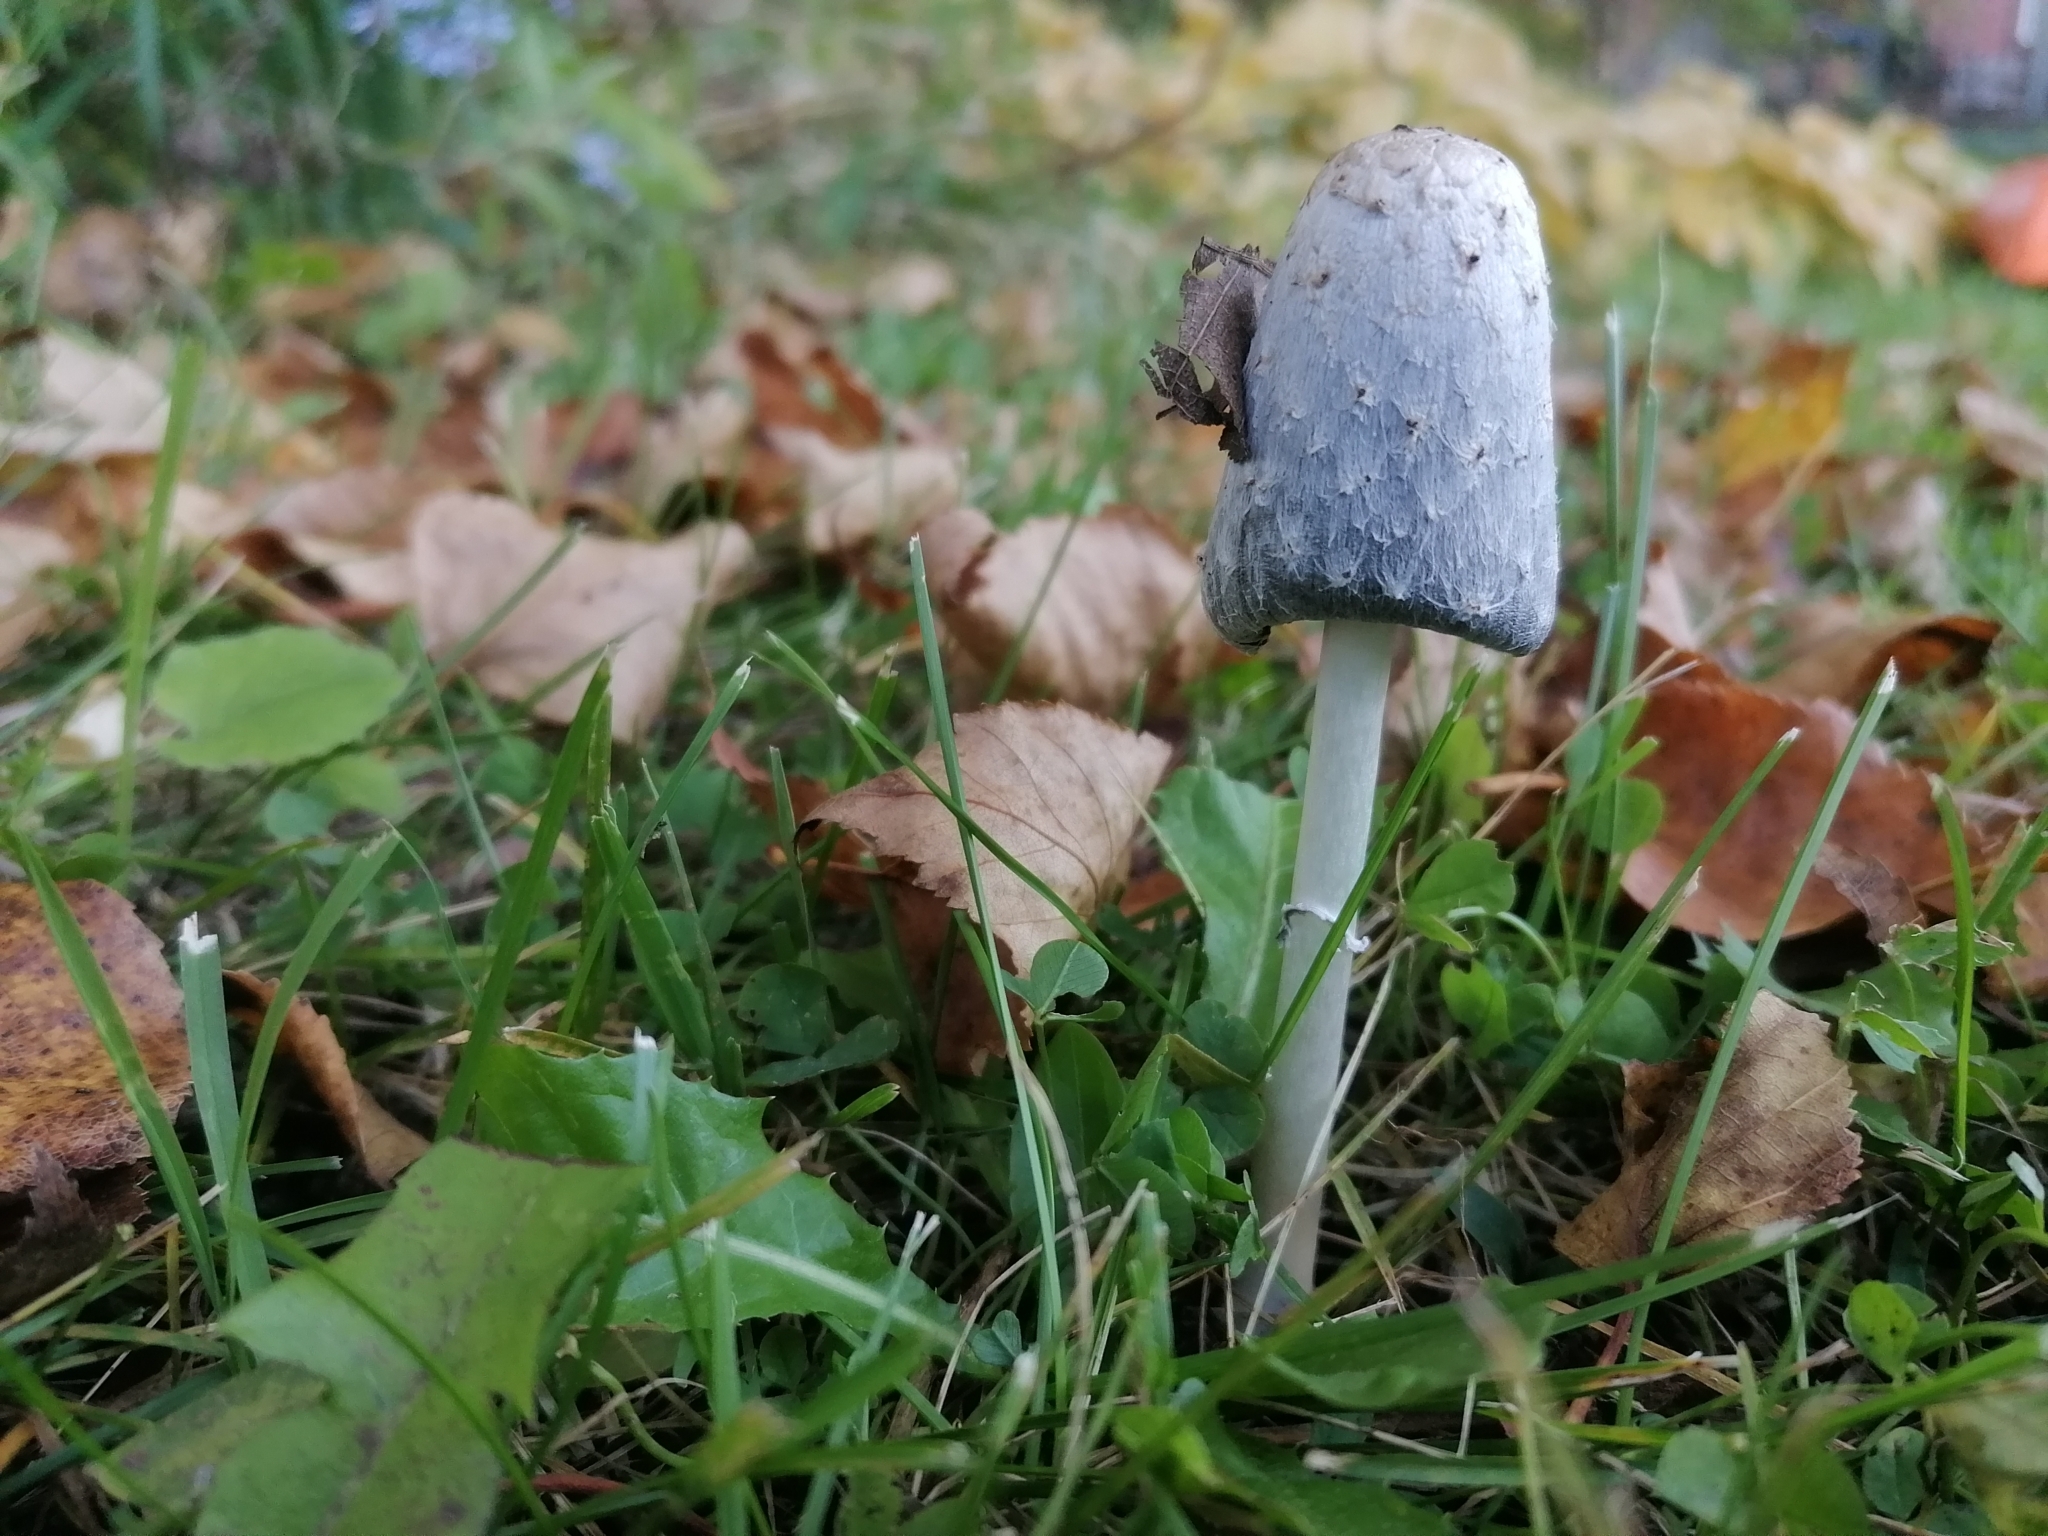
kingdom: Fungi
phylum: Basidiomycota
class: Agaricomycetes
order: Agaricales
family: Agaricaceae
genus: Coprinus
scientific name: Coprinus comatus
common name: Lawyer's wig
